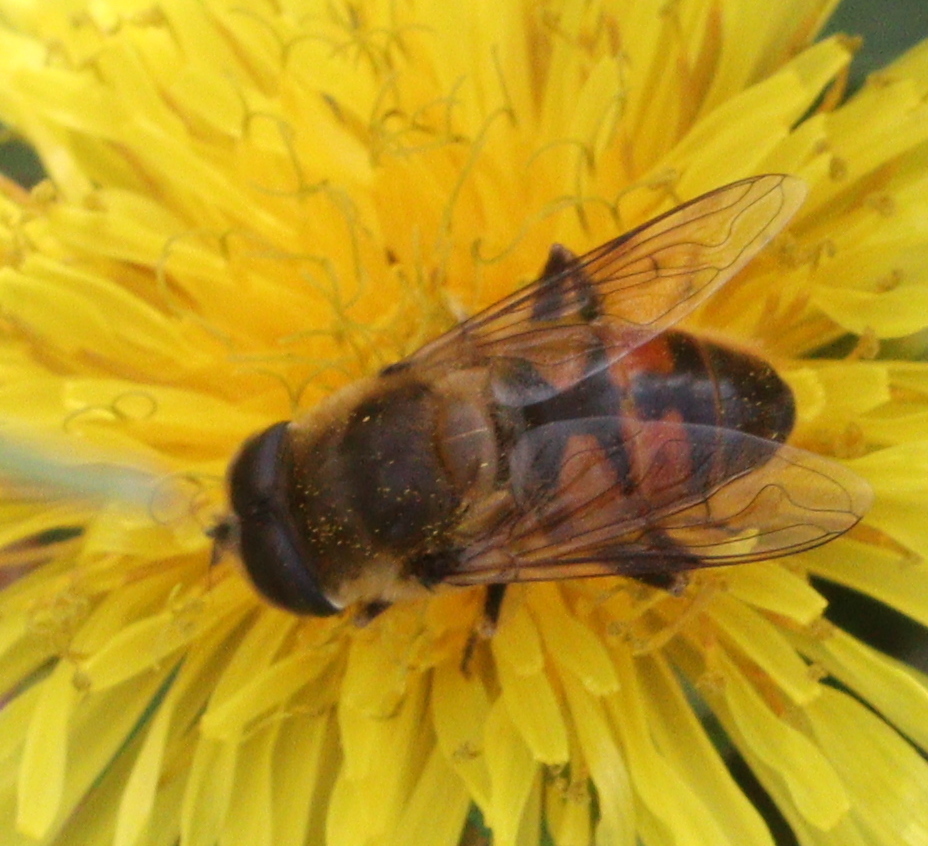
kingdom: Animalia
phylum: Arthropoda
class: Insecta
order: Diptera
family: Syrphidae
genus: Eristalis
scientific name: Eristalis tenax
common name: Drone fly
